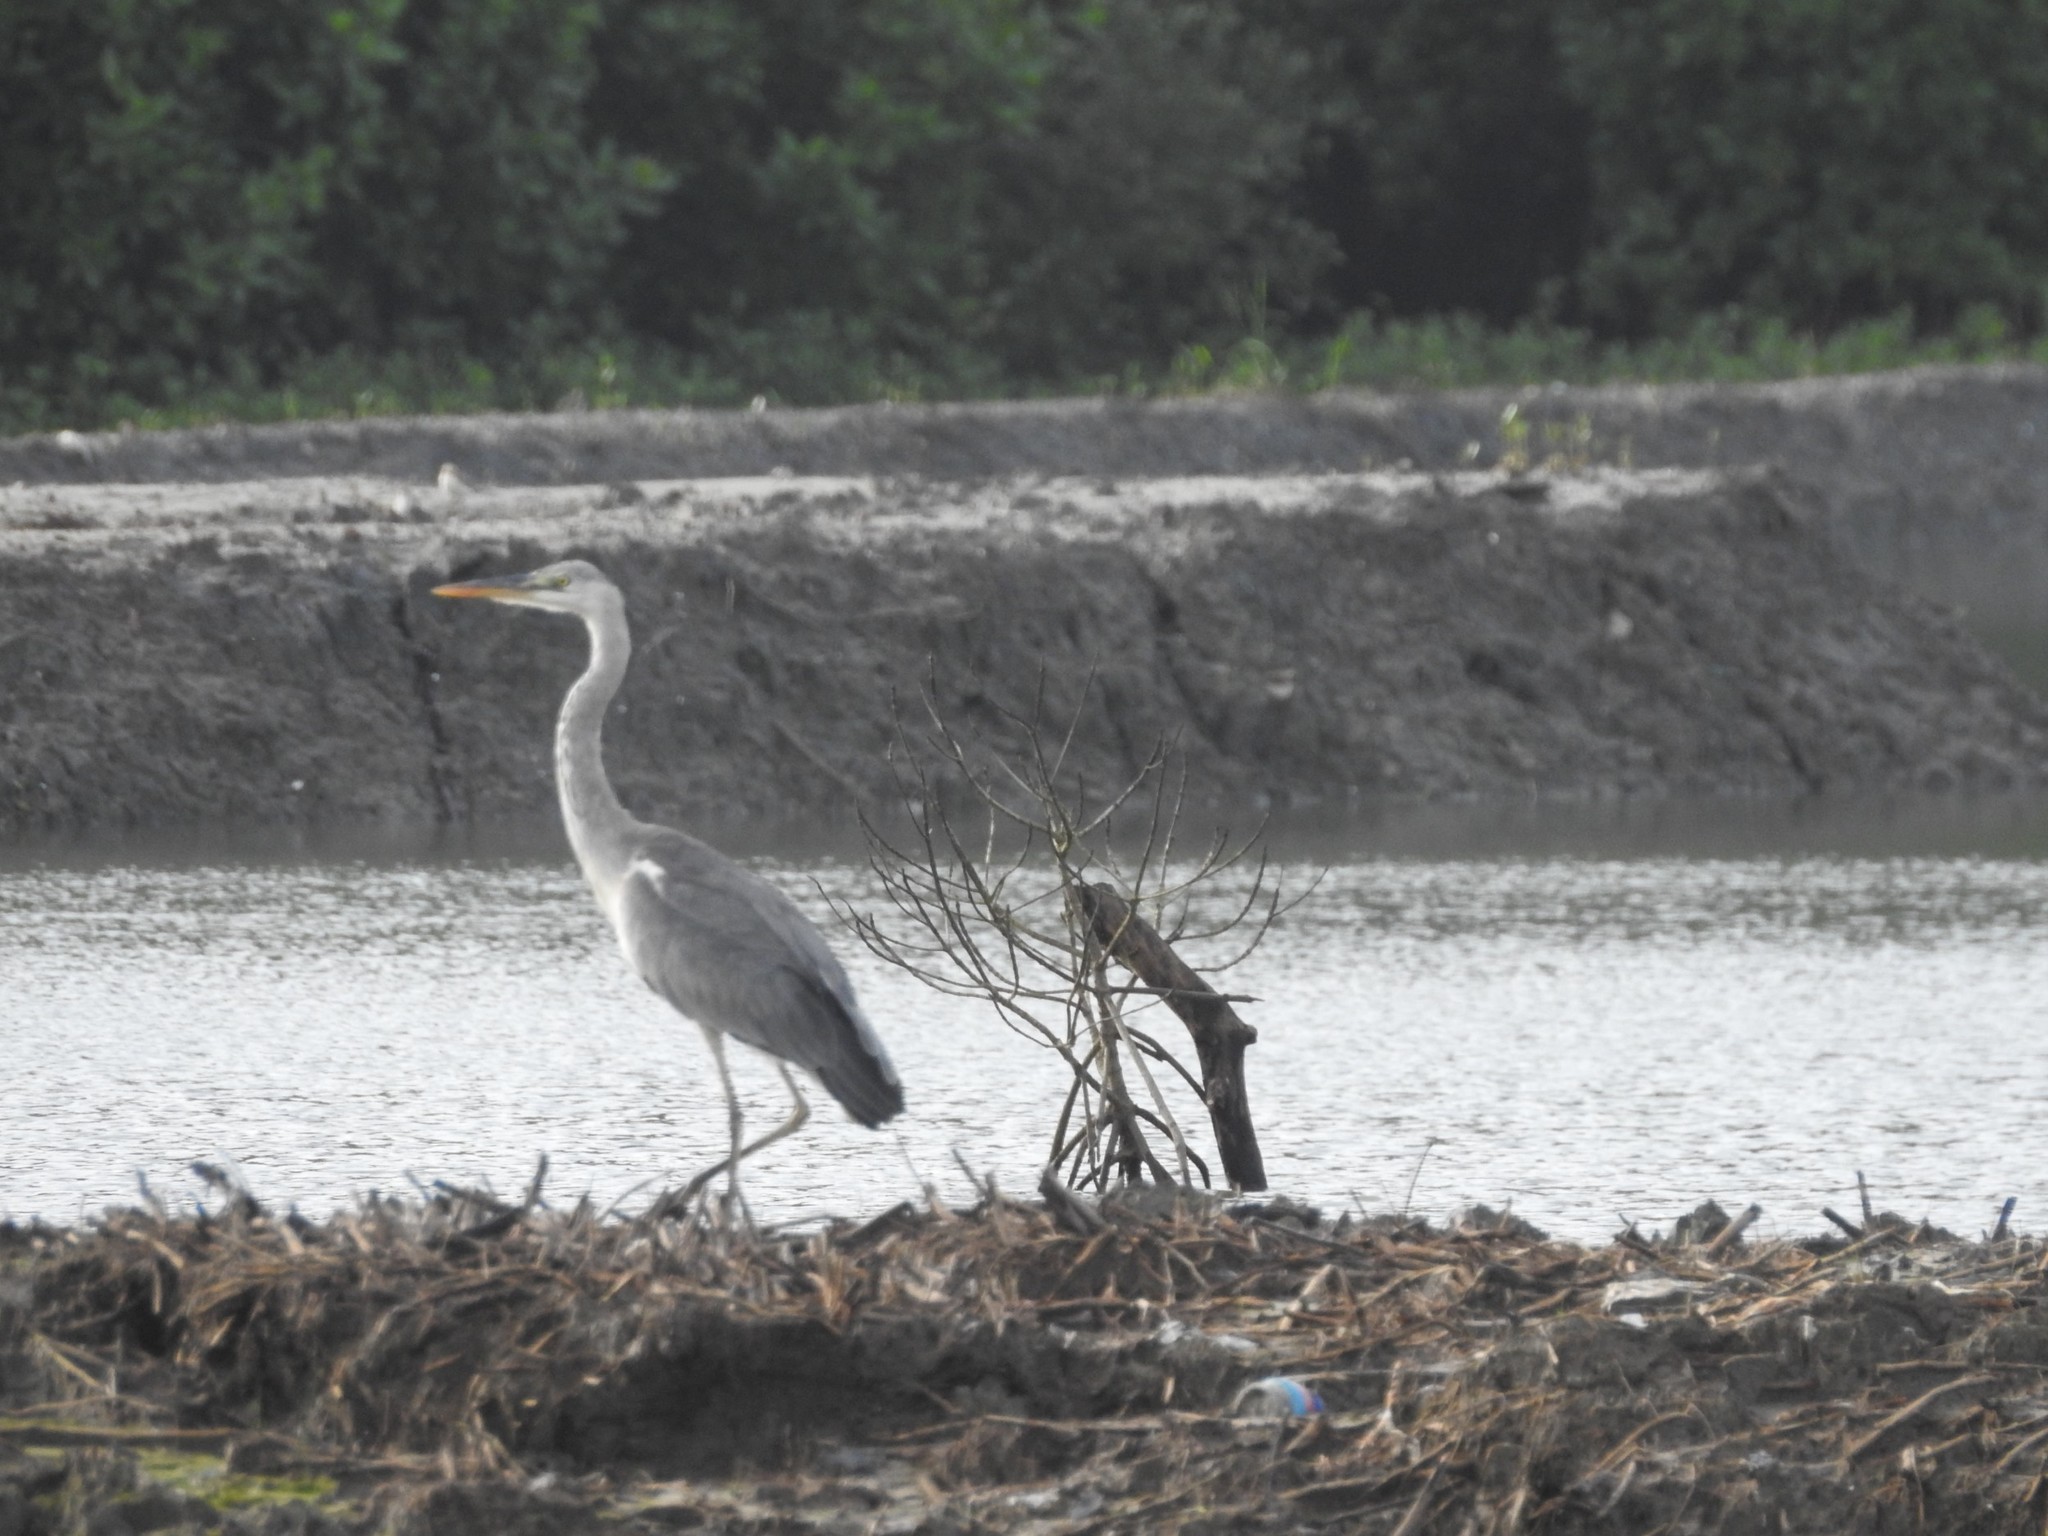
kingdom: Animalia
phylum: Chordata
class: Aves
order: Pelecaniformes
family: Ardeidae
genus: Ardea
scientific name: Ardea cinerea
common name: Grey heron
